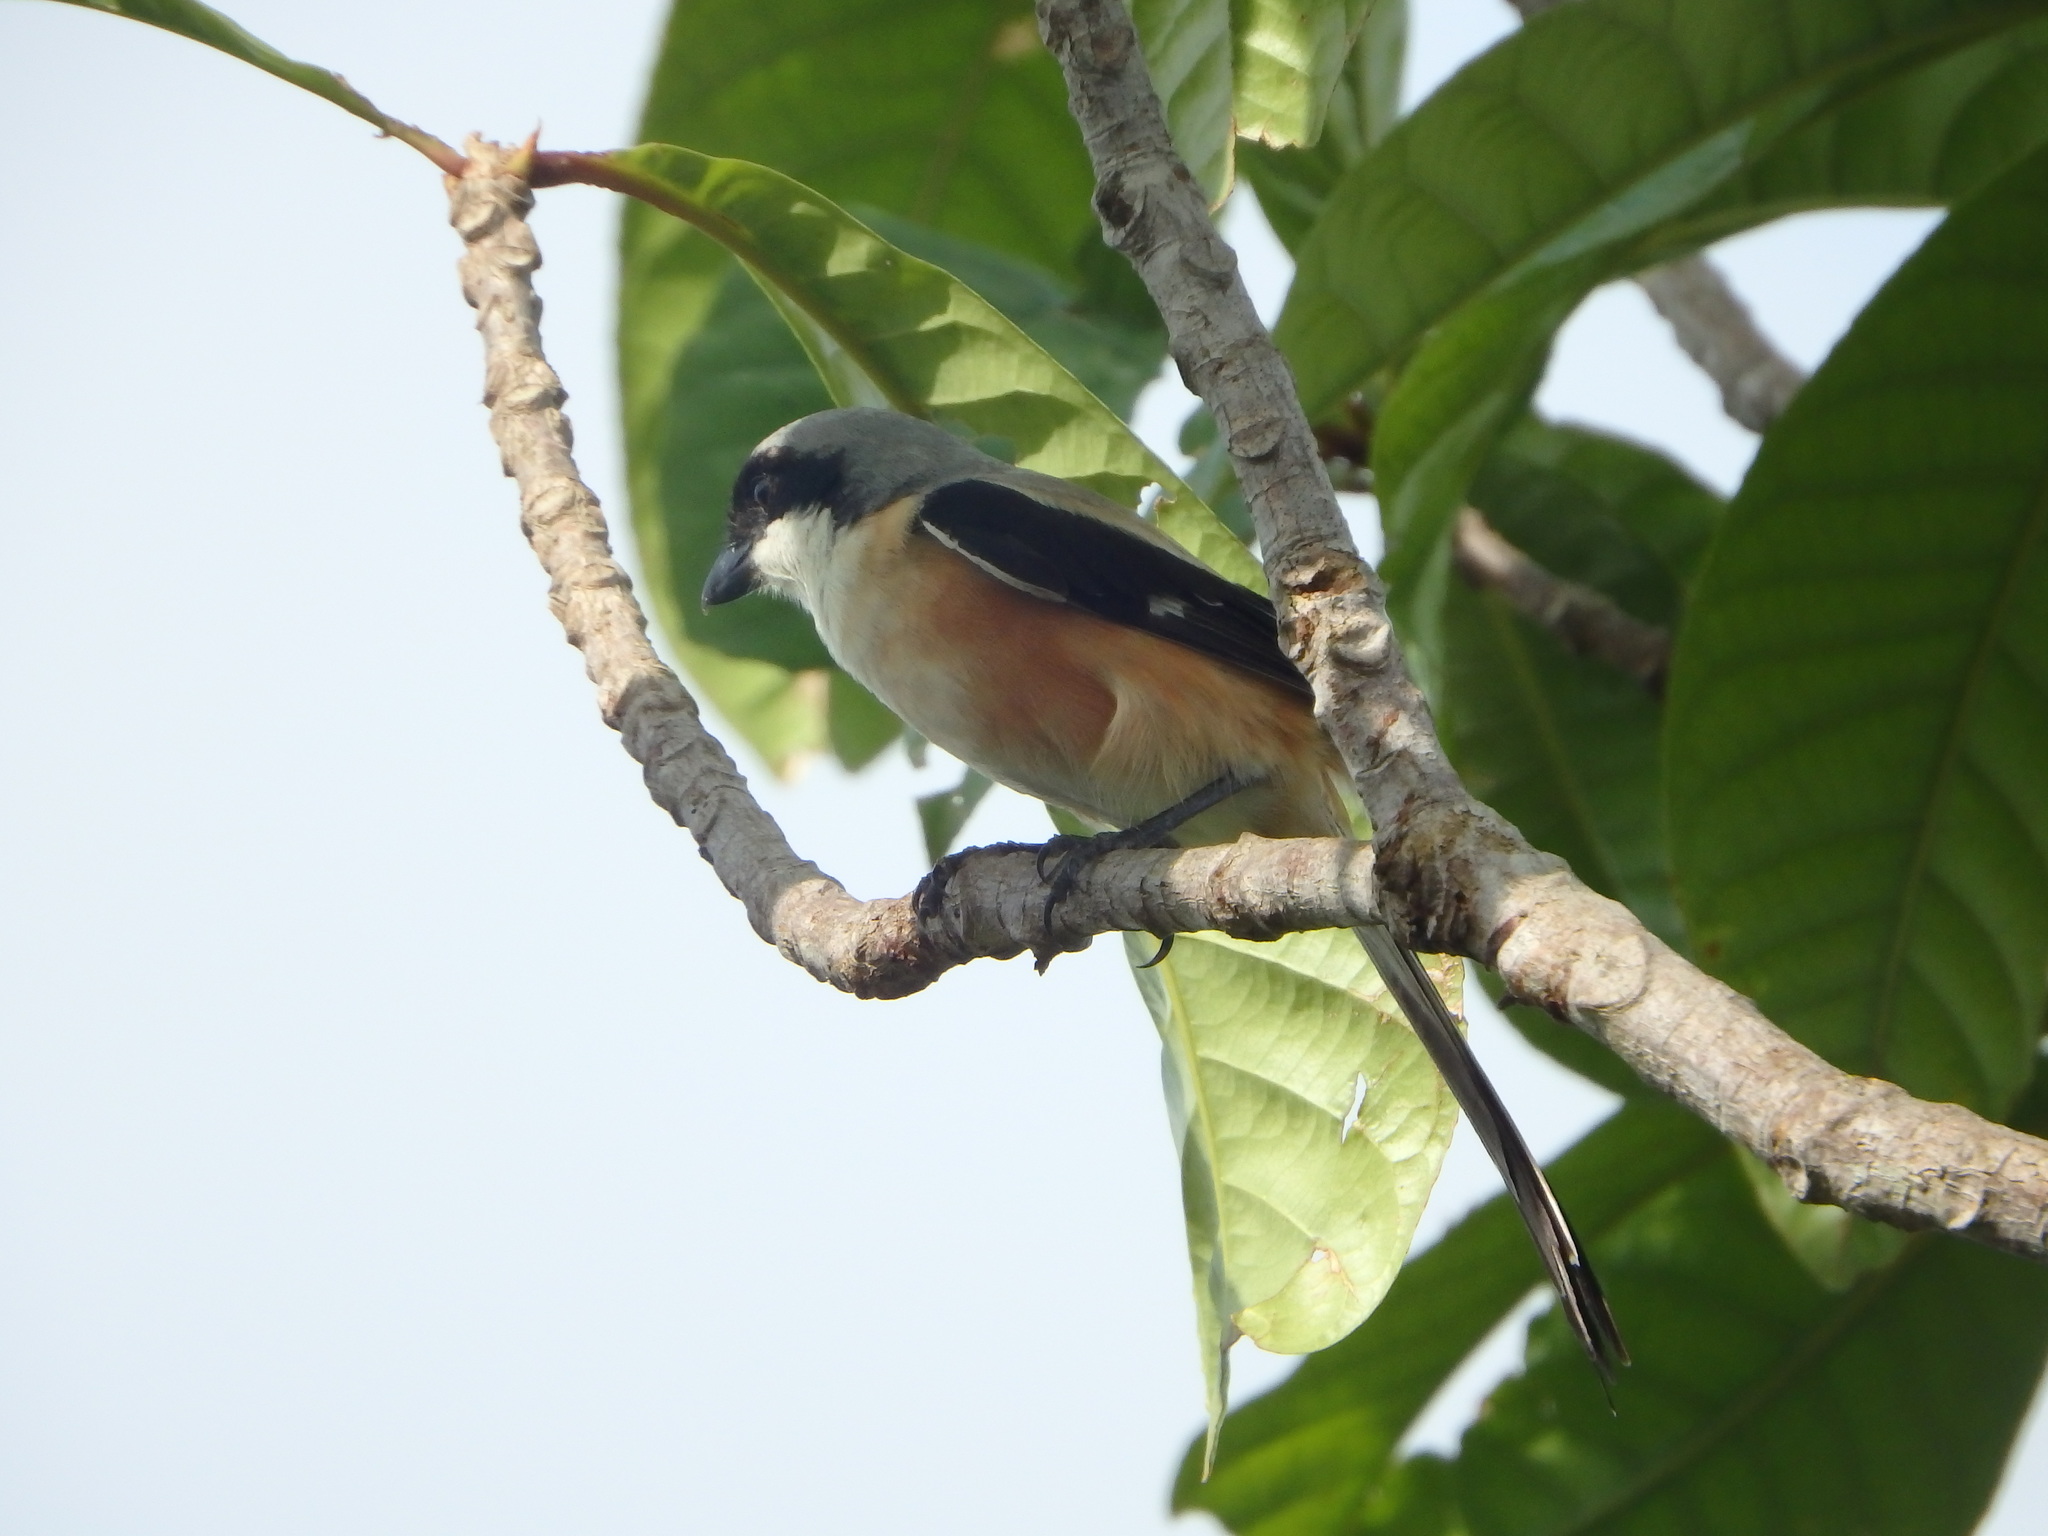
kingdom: Animalia
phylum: Chordata
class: Aves
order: Passeriformes
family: Laniidae
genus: Lanius
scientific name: Lanius schach
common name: Long-tailed shrike
